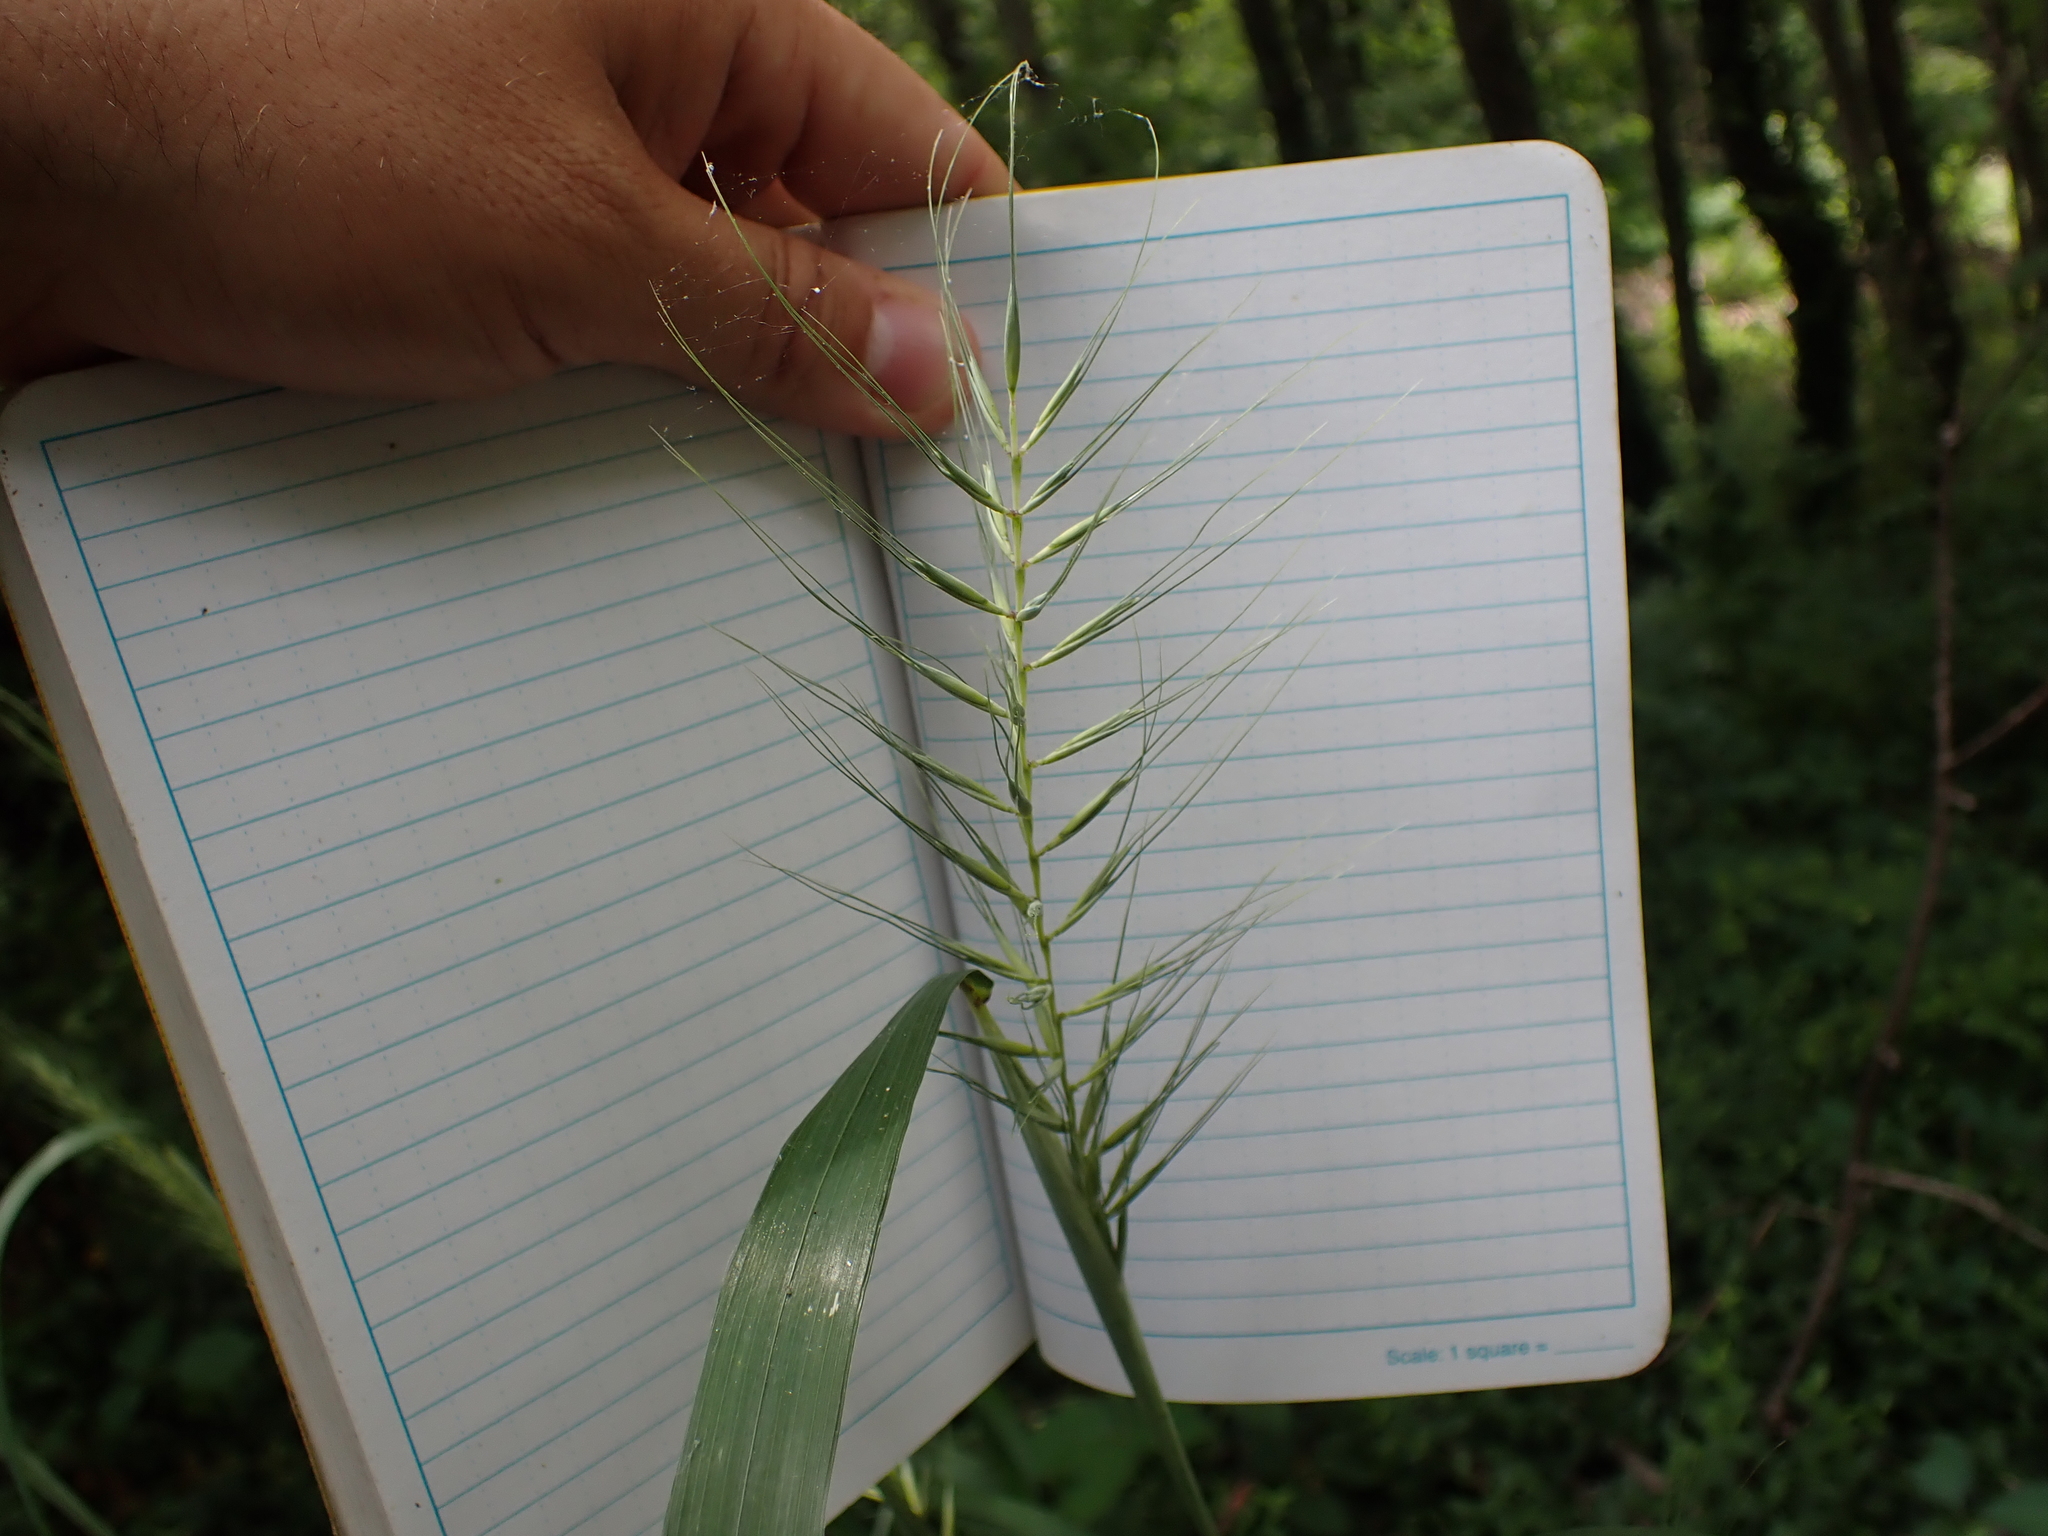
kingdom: Plantae
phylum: Tracheophyta
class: Liliopsida
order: Poales
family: Poaceae
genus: Elymus
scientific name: Elymus hystrix
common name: Bottlebrush grass
